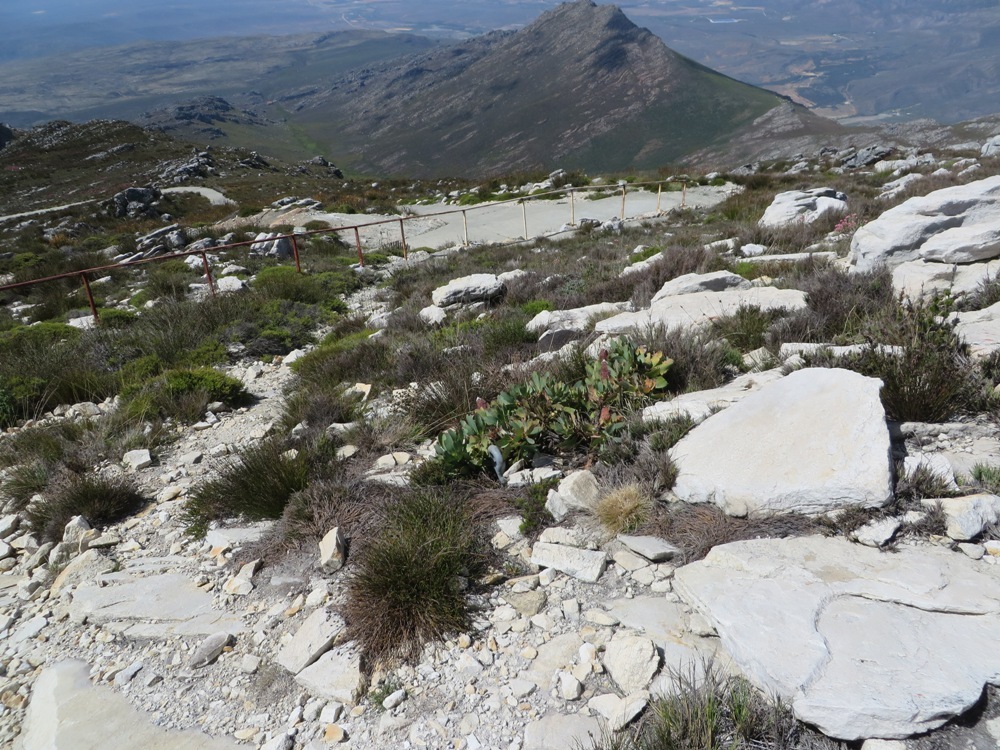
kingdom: Plantae
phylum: Tracheophyta
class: Magnoliopsida
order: Proteales
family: Proteaceae
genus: Protea
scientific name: Protea grandiceps
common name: Red sugarbush
